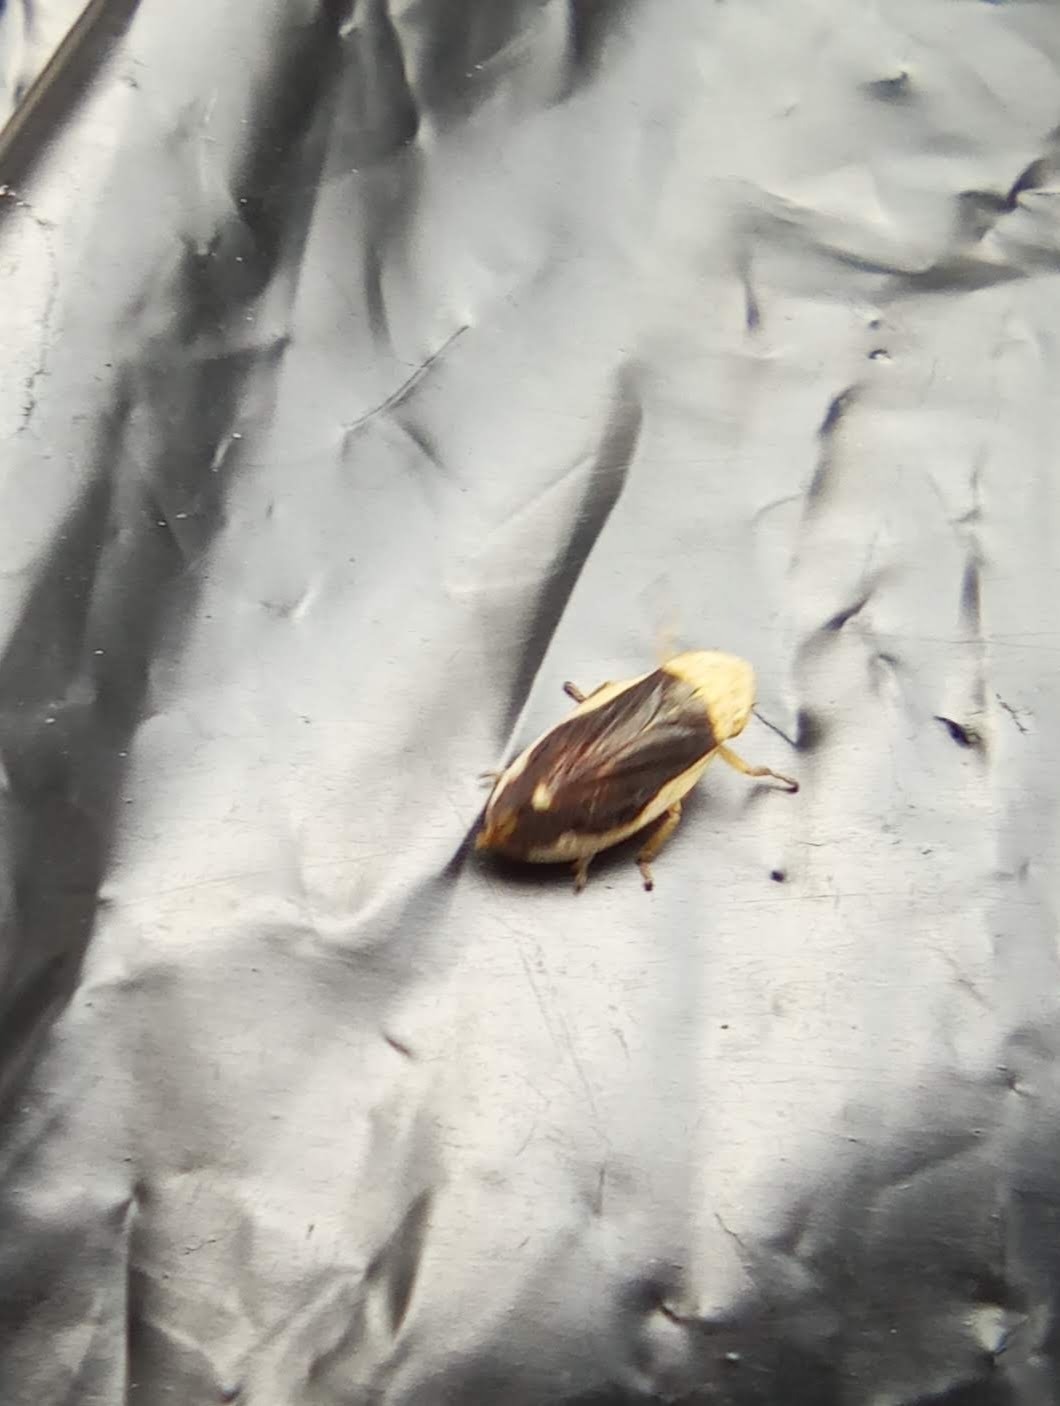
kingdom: Animalia
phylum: Arthropoda
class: Insecta
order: Hemiptera
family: Aphrophoridae
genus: Philaenus
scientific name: Philaenus spumarius
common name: Meadow spittlebug
